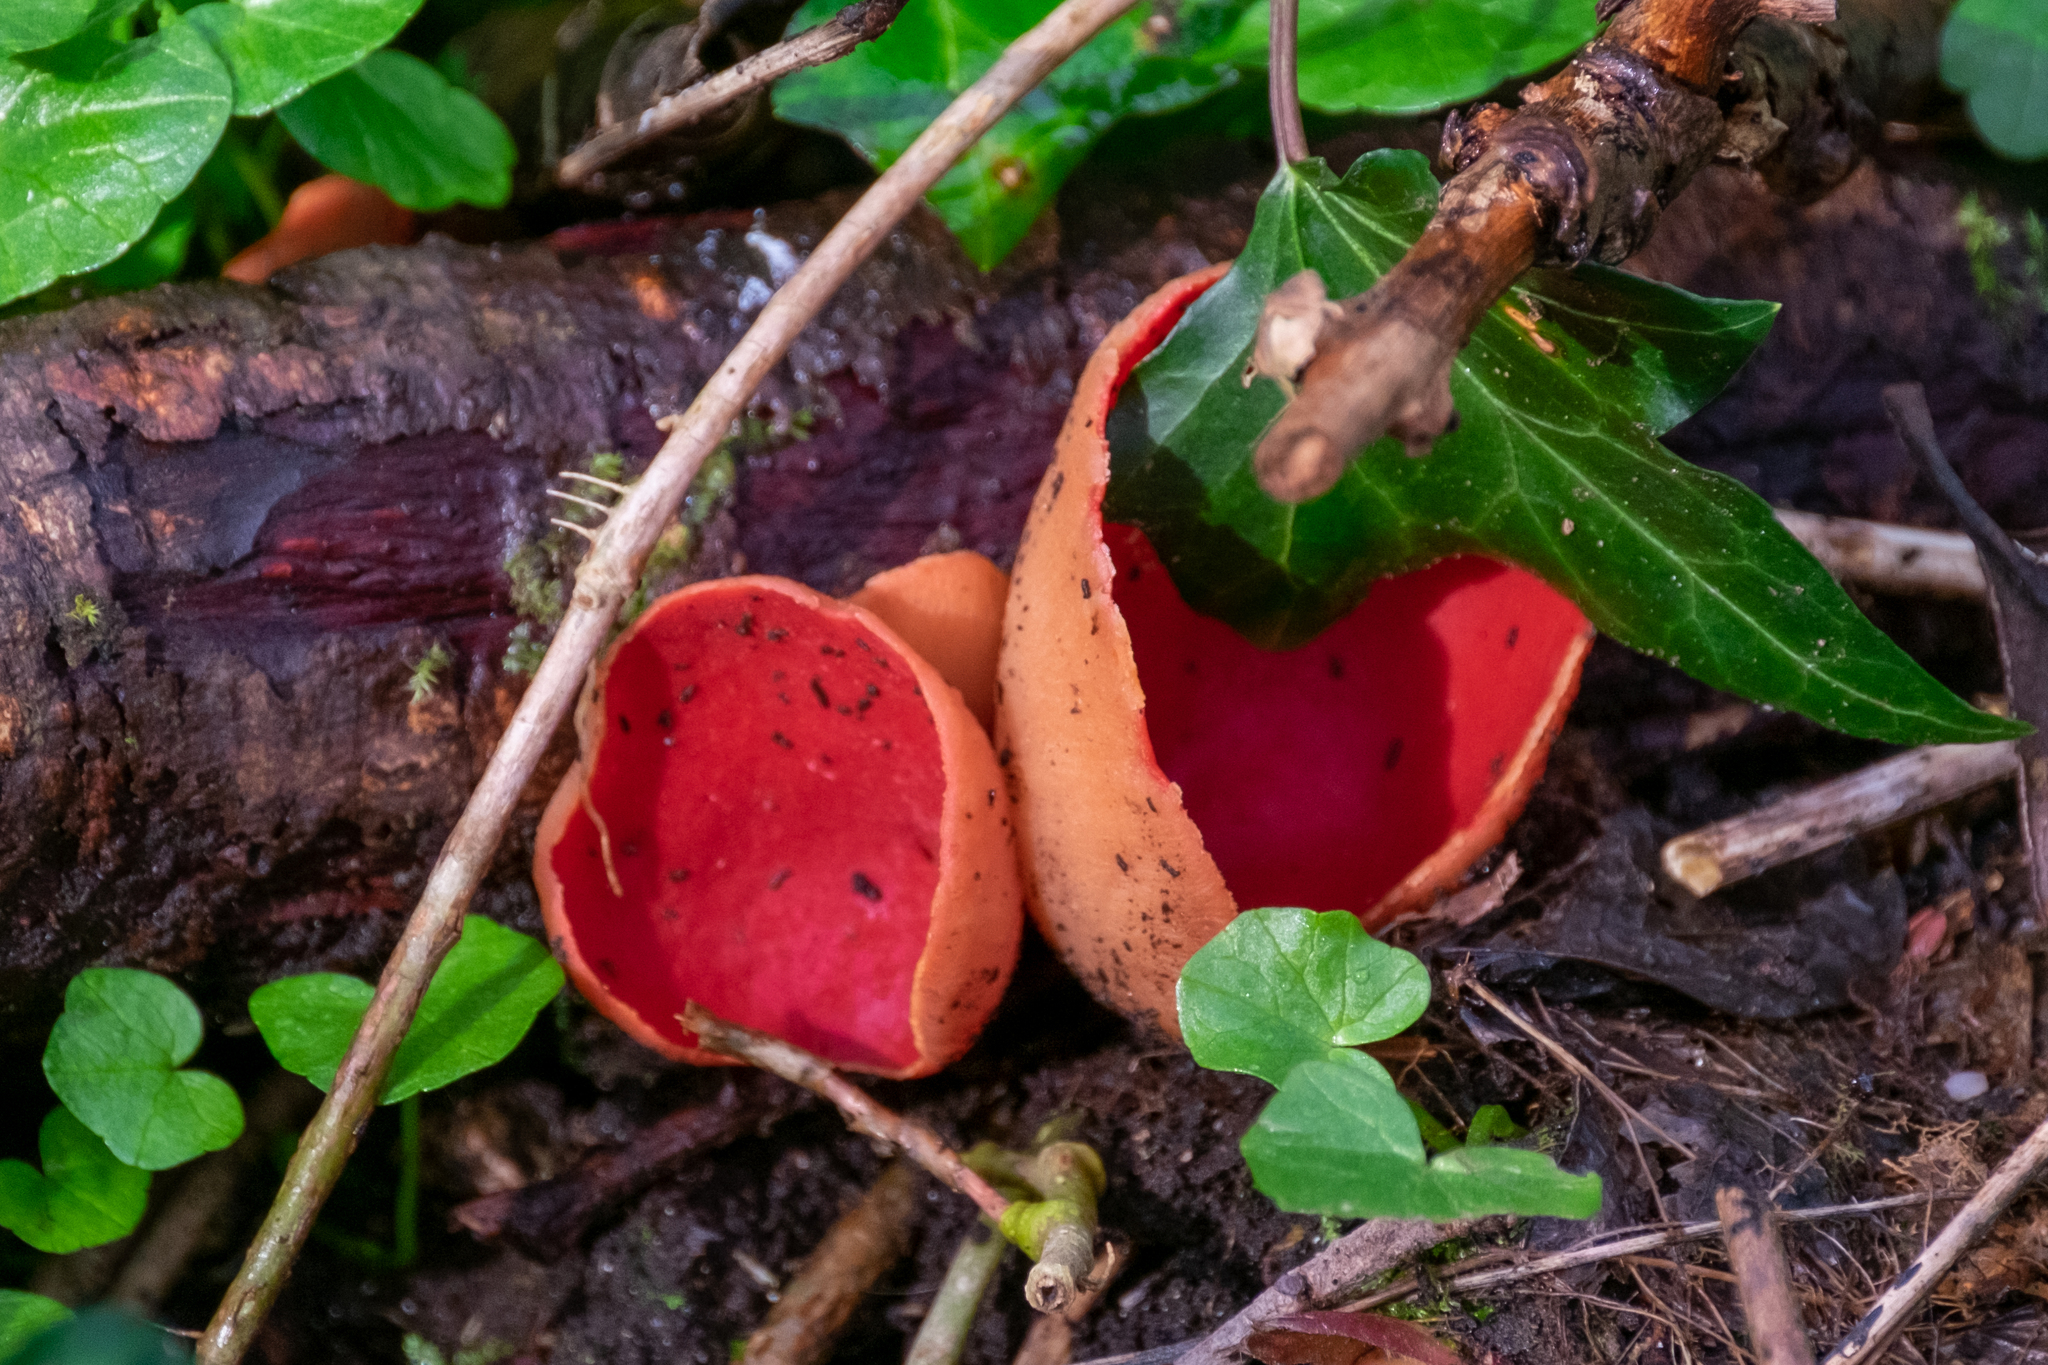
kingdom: Fungi
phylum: Ascomycota
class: Pezizomycetes
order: Pezizales
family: Sarcoscyphaceae
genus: Sarcoscypha
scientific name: Sarcoscypha
